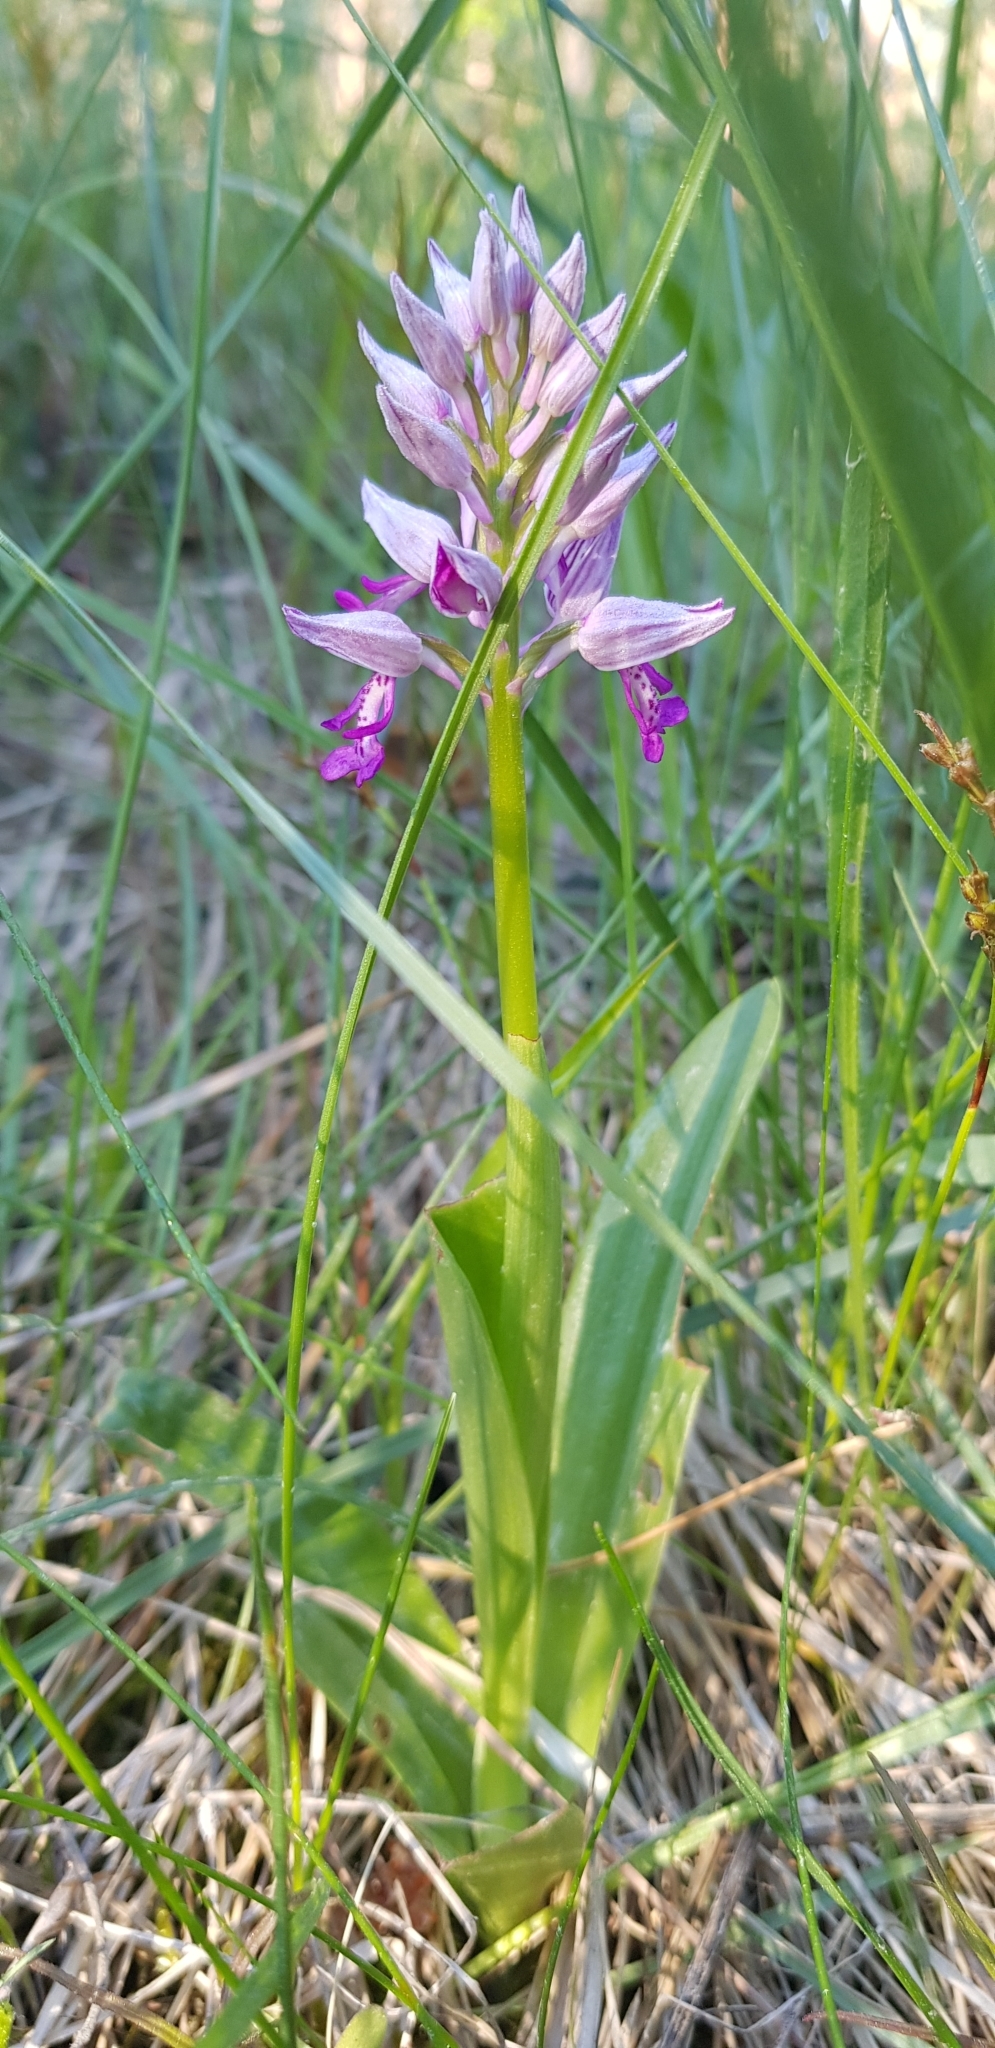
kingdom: Plantae
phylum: Tracheophyta
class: Liliopsida
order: Asparagales
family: Orchidaceae
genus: Orchis
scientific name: Orchis militaris
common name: Military orchid
